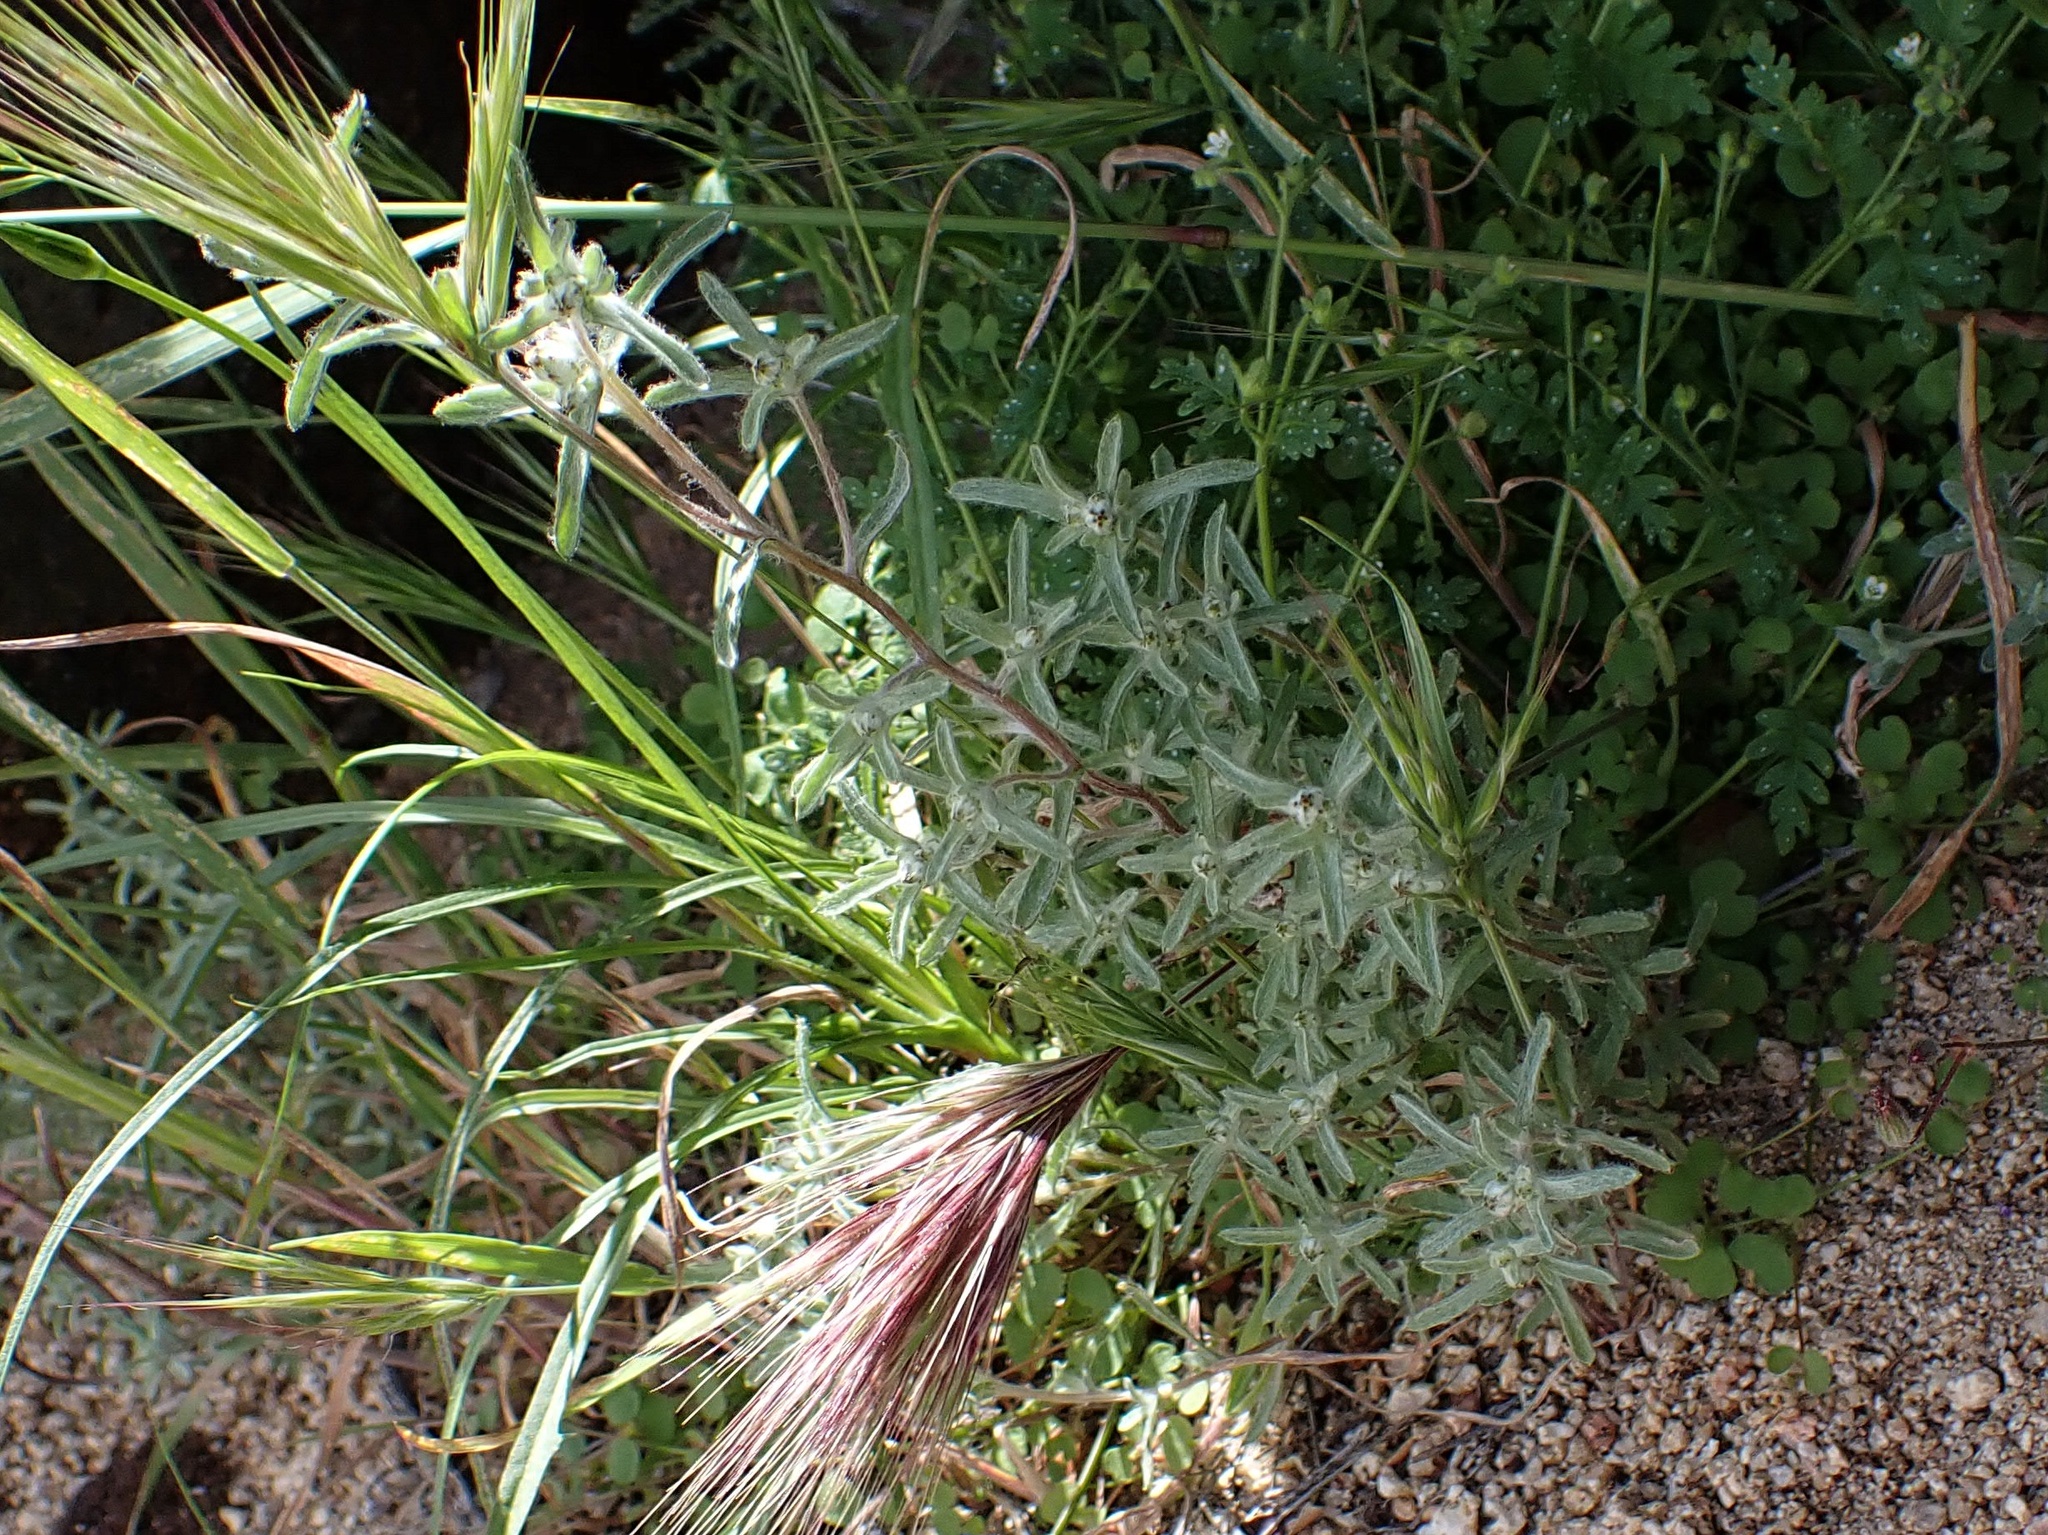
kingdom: Plantae
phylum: Tracheophyta
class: Magnoliopsida
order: Asterales
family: Asteraceae
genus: Logfia
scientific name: Logfia californica
